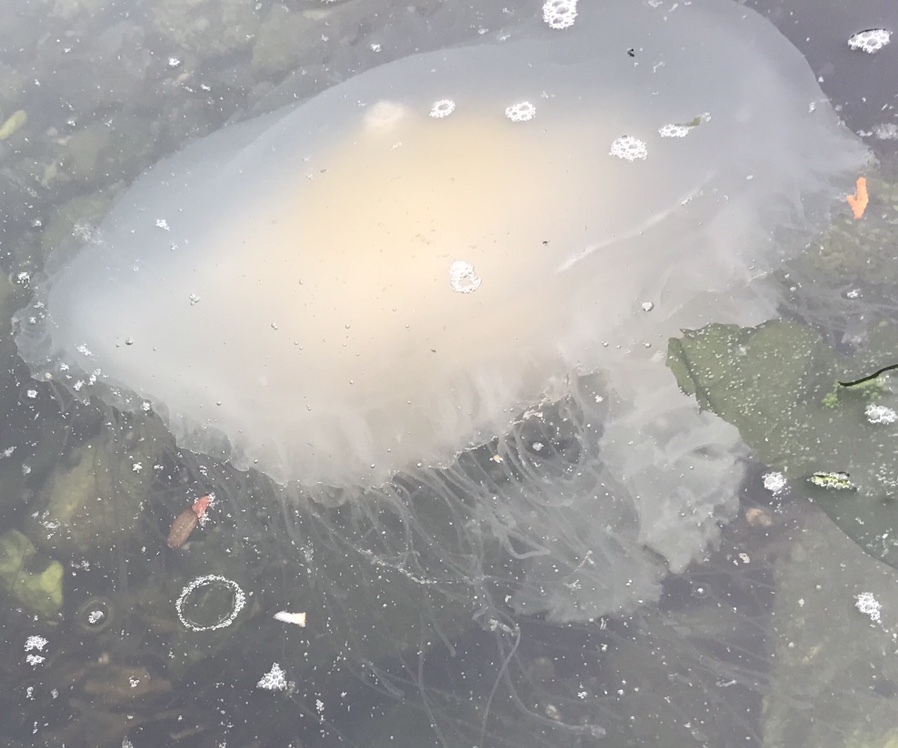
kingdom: Animalia
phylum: Cnidaria
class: Scyphozoa
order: Semaeostomeae
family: Phacellophoridae
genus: Phacellophora
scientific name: Phacellophora camtschatica
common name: Fried-egg jellyfish
